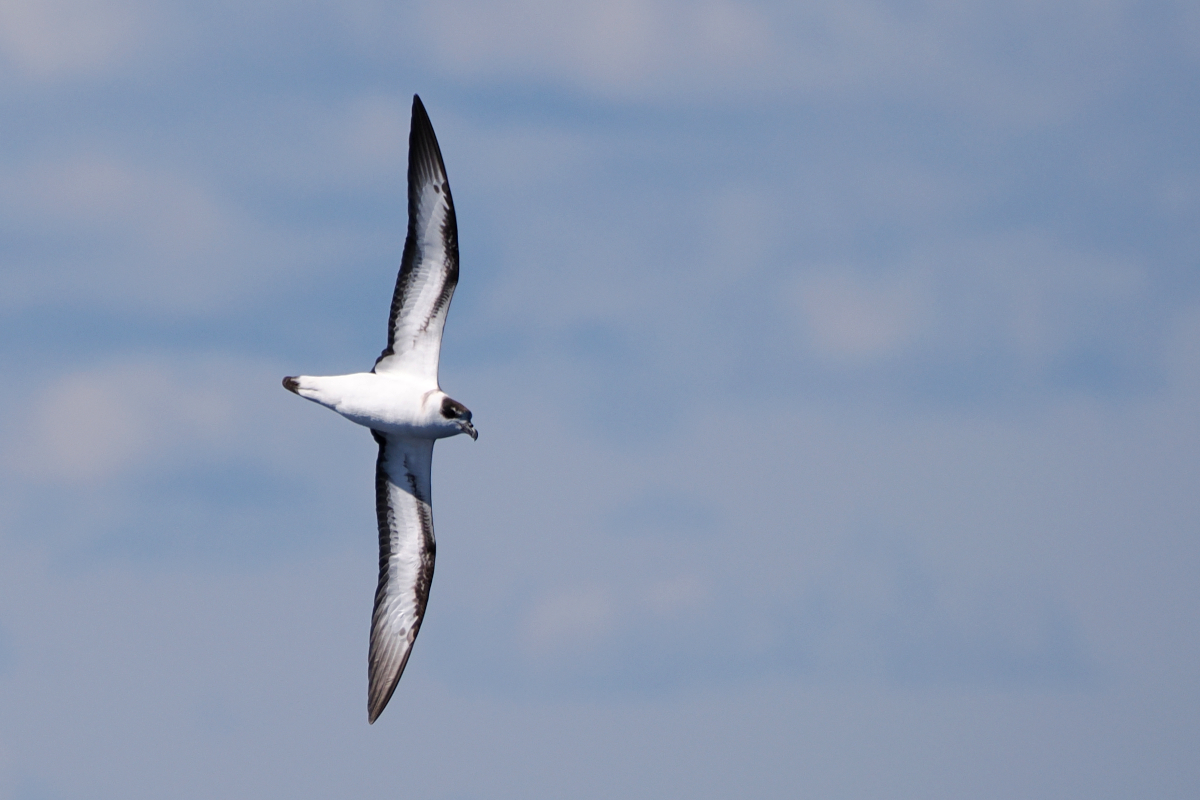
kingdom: Animalia
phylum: Chordata
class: Aves
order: Procellariiformes
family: Procellariidae
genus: Pterodroma
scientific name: Pterodroma hasitata
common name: Black-capped petrel
